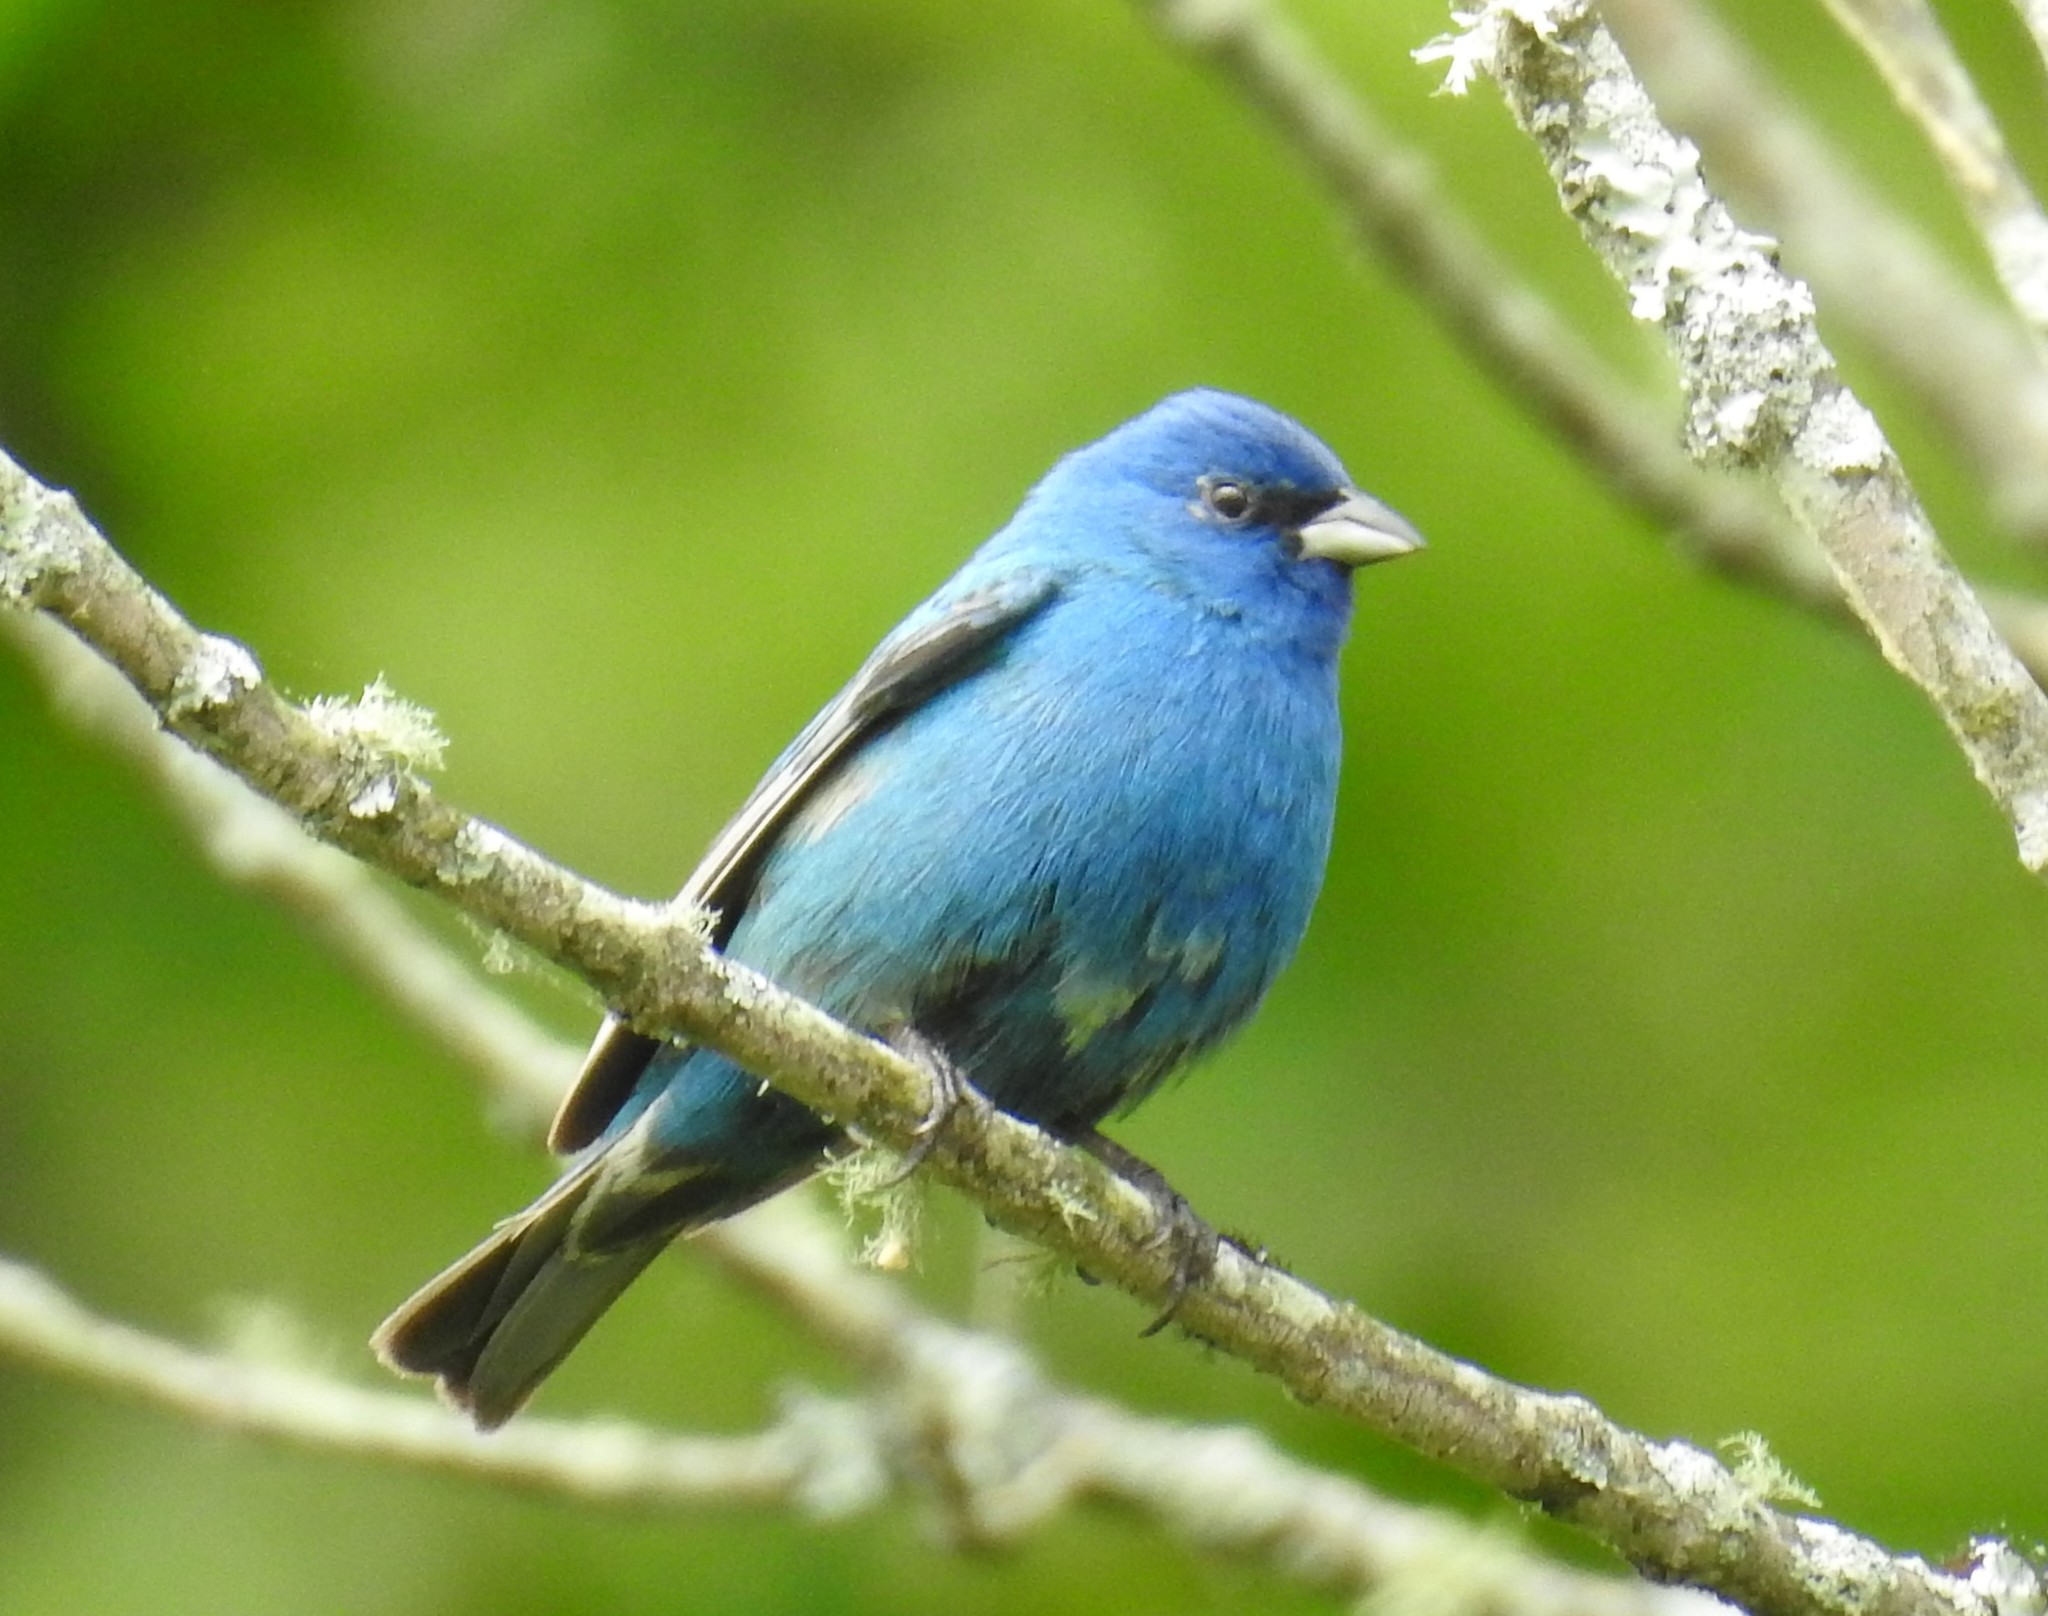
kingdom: Animalia
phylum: Chordata
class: Aves
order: Passeriformes
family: Cardinalidae
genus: Passerina
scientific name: Passerina cyanea
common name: Indigo bunting
